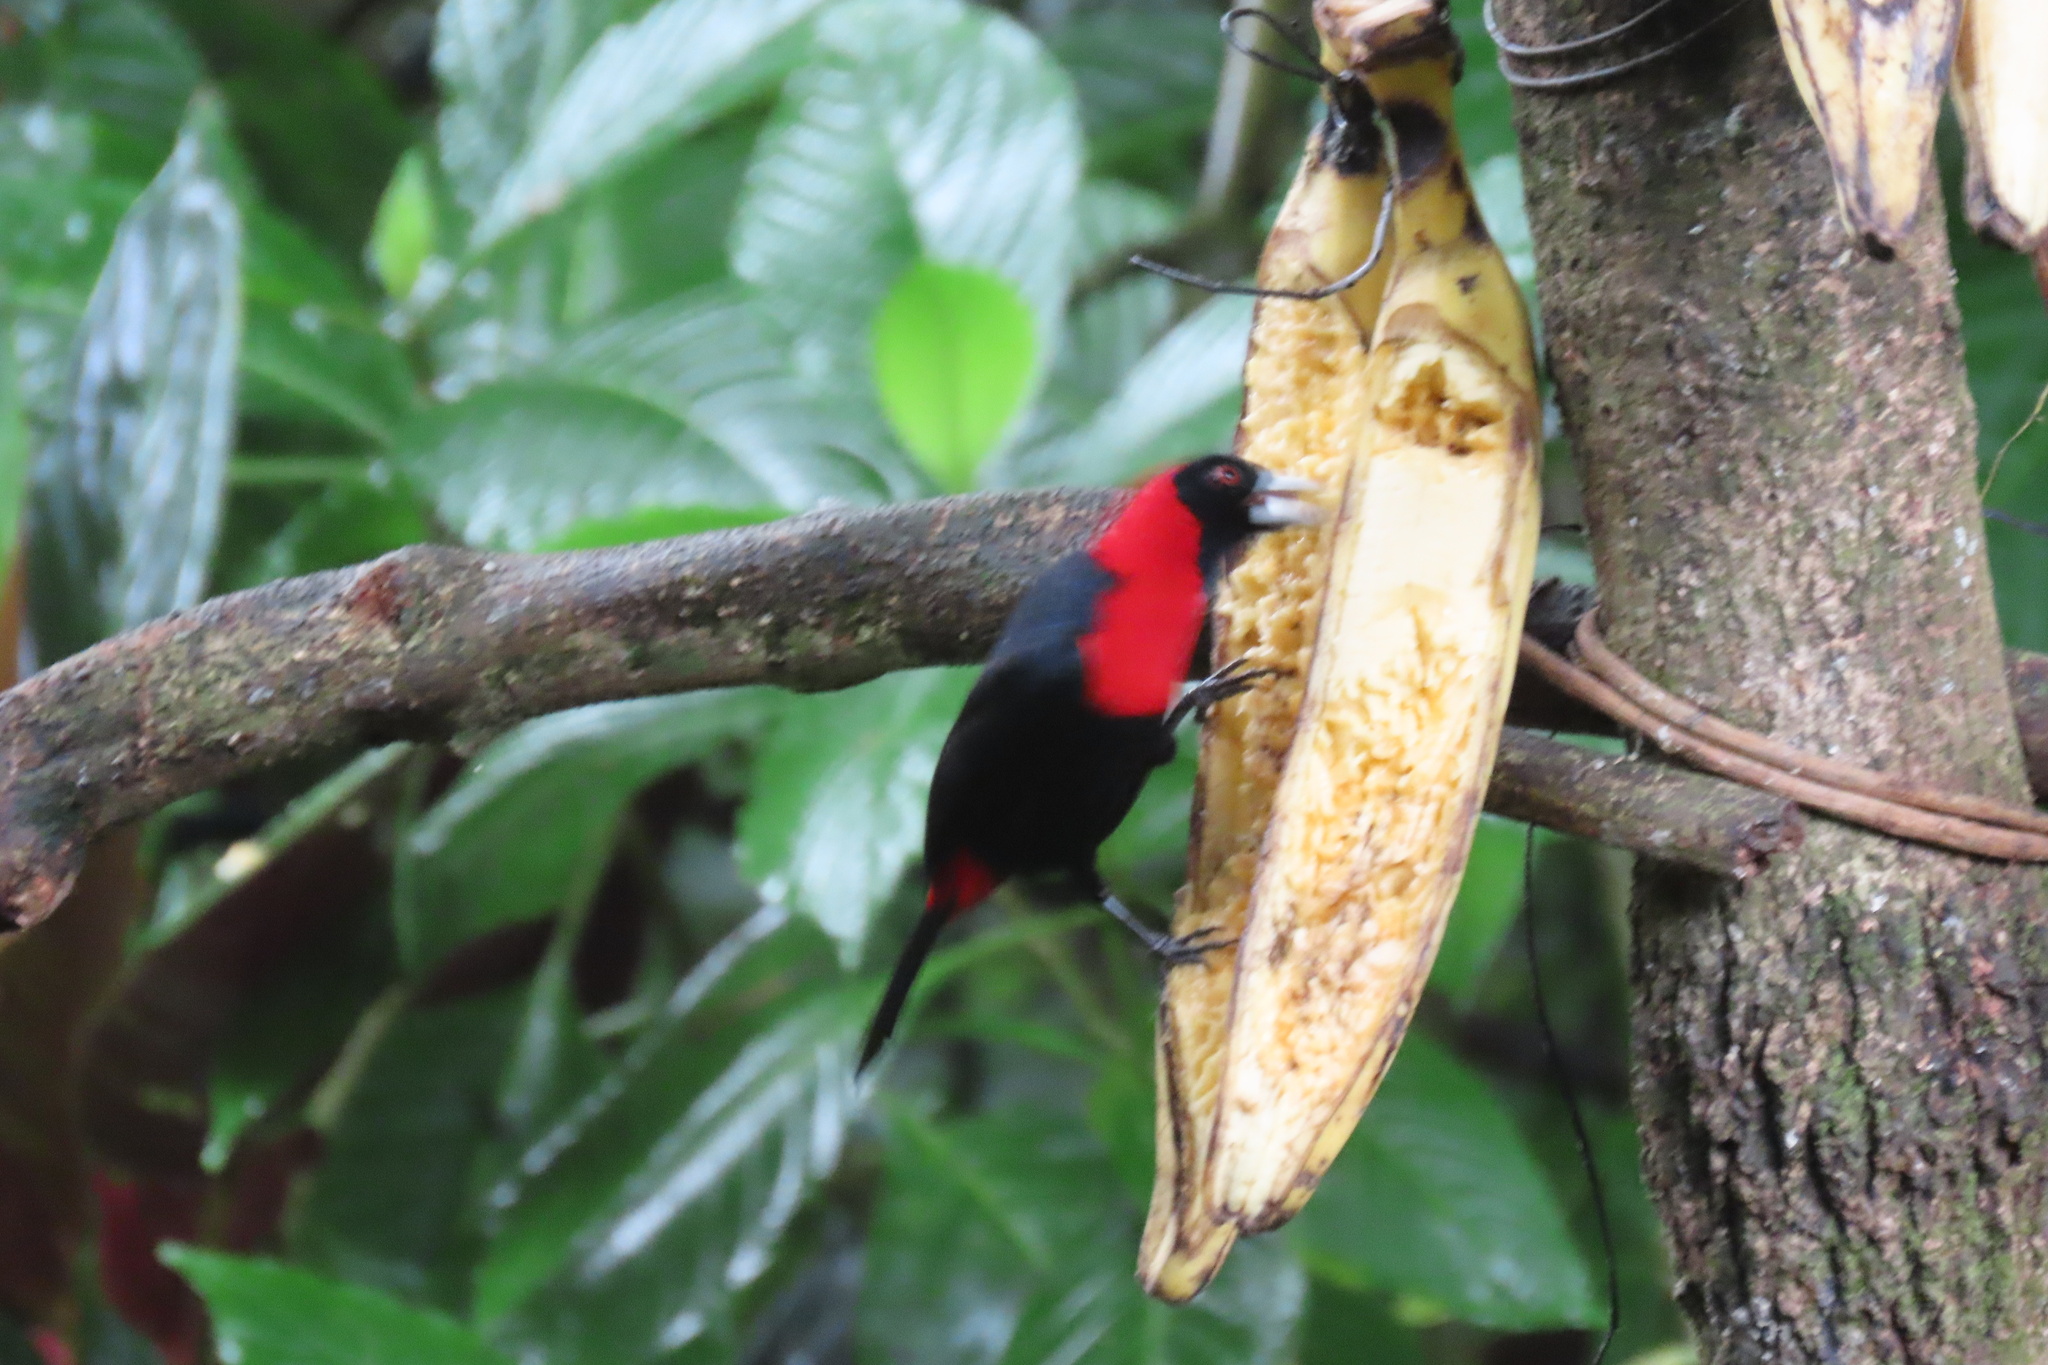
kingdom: Animalia
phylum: Chordata
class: Aves
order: Passeriformes
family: Thraupidae
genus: Ramphocelus
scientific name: Ramphocelus sanguinolentus
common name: Crimson-collared tanager
